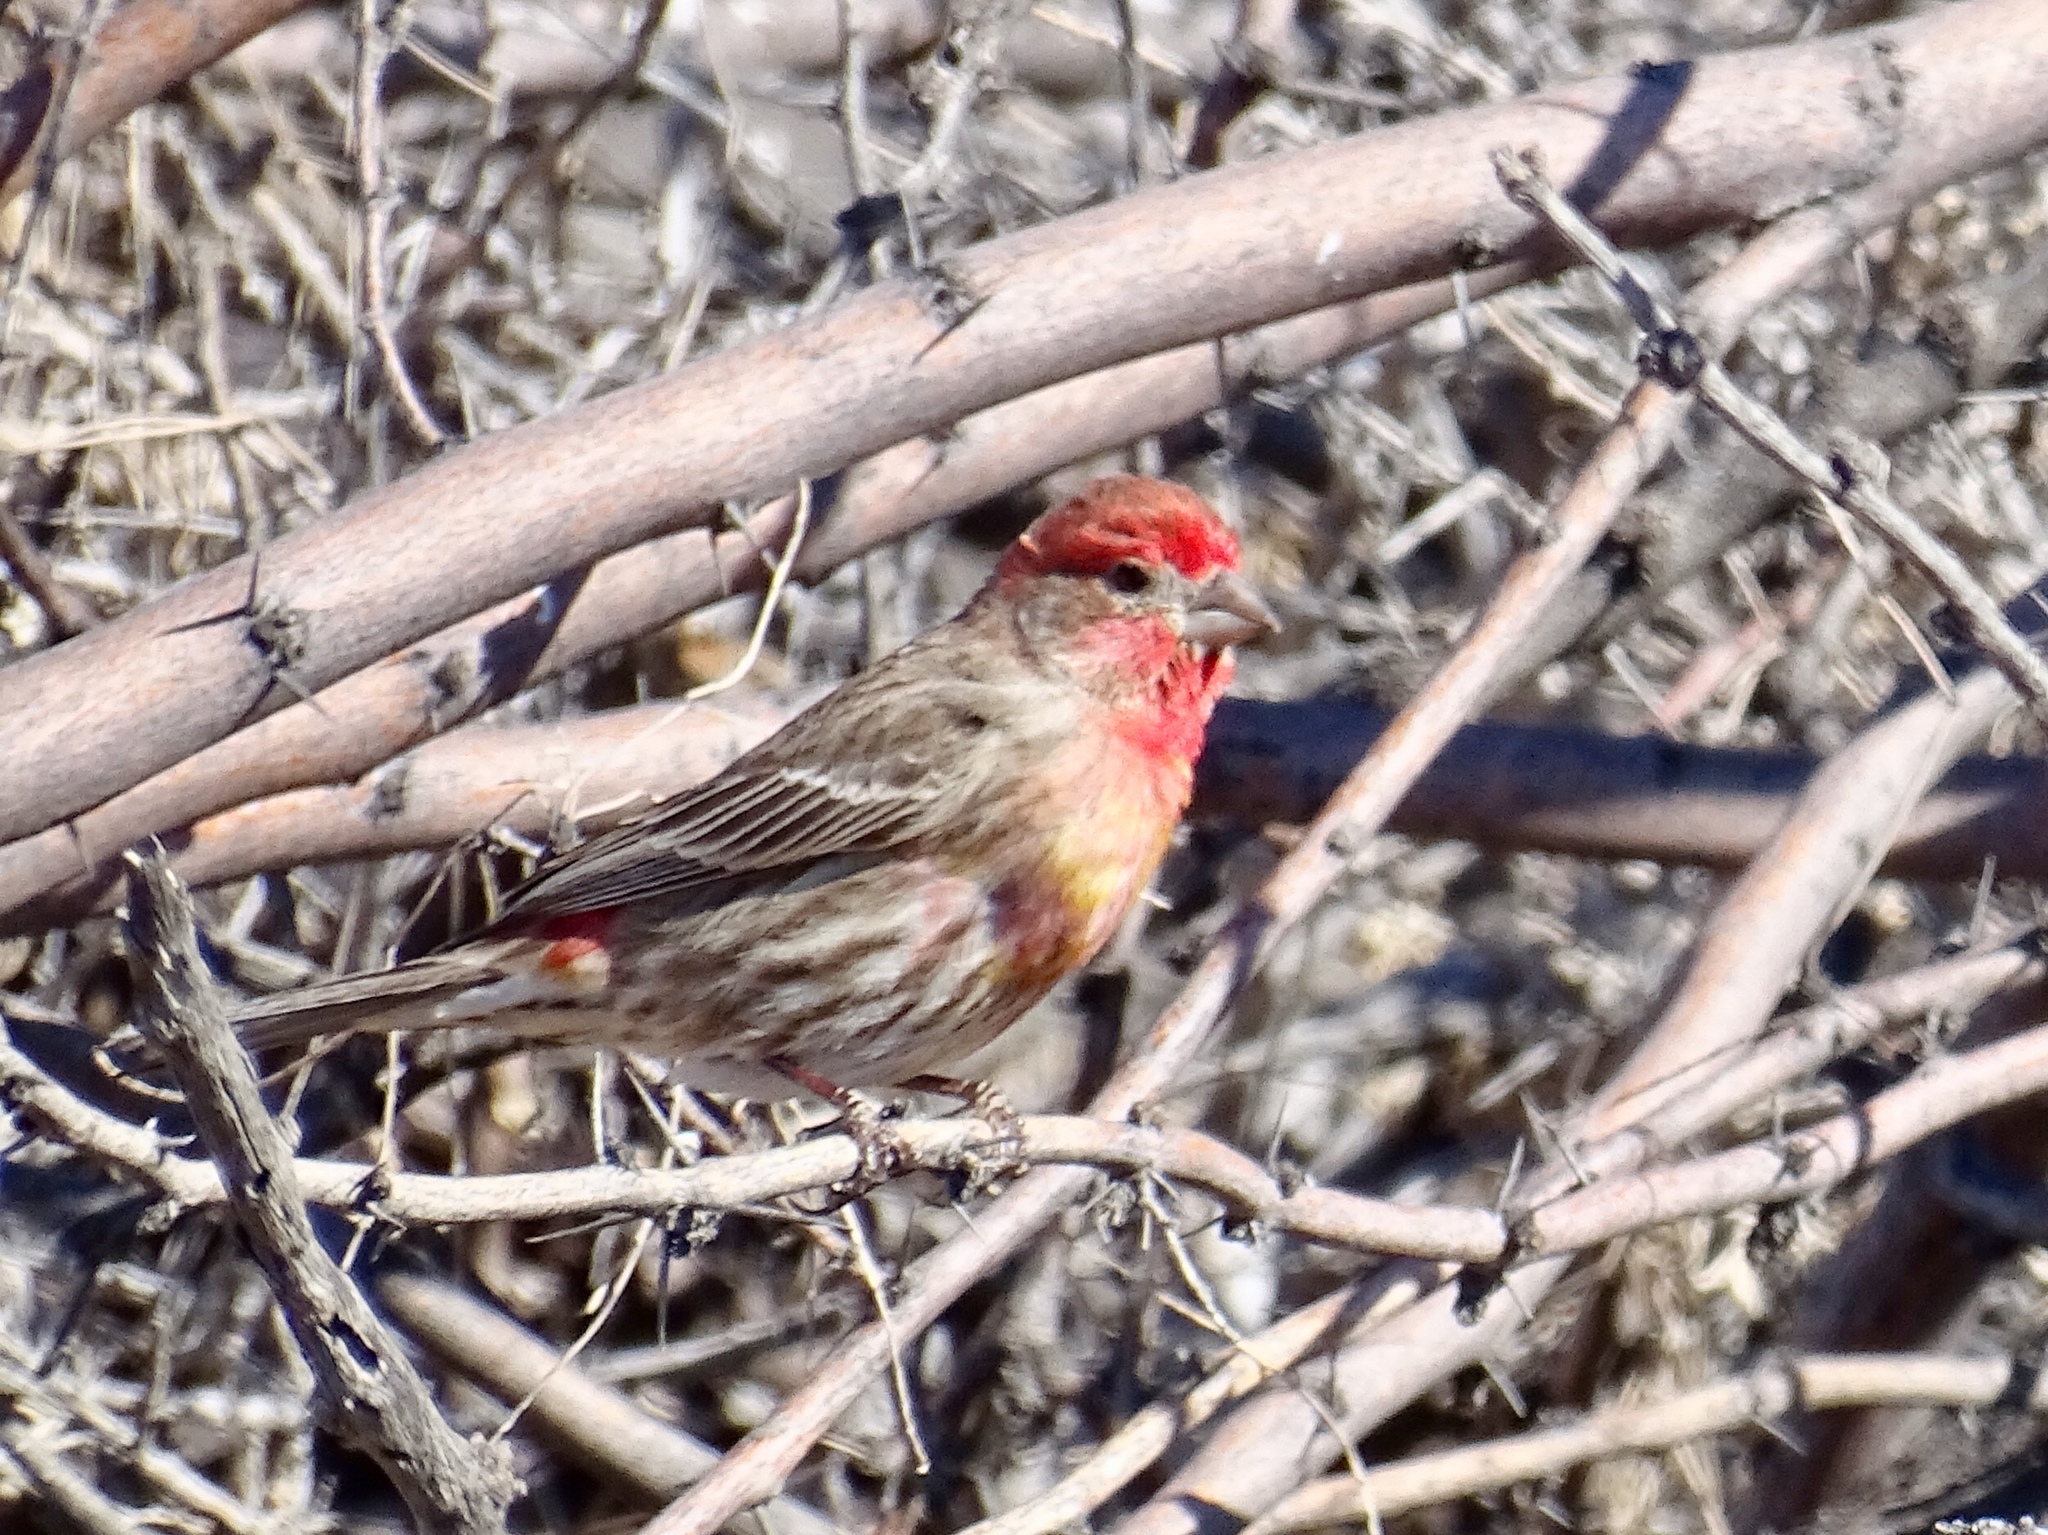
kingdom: Animalia
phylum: Chordata
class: Aves
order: Passeriformes
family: Fringillidae
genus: Haemorhous
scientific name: Haemorhous mexicanus
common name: House finch
